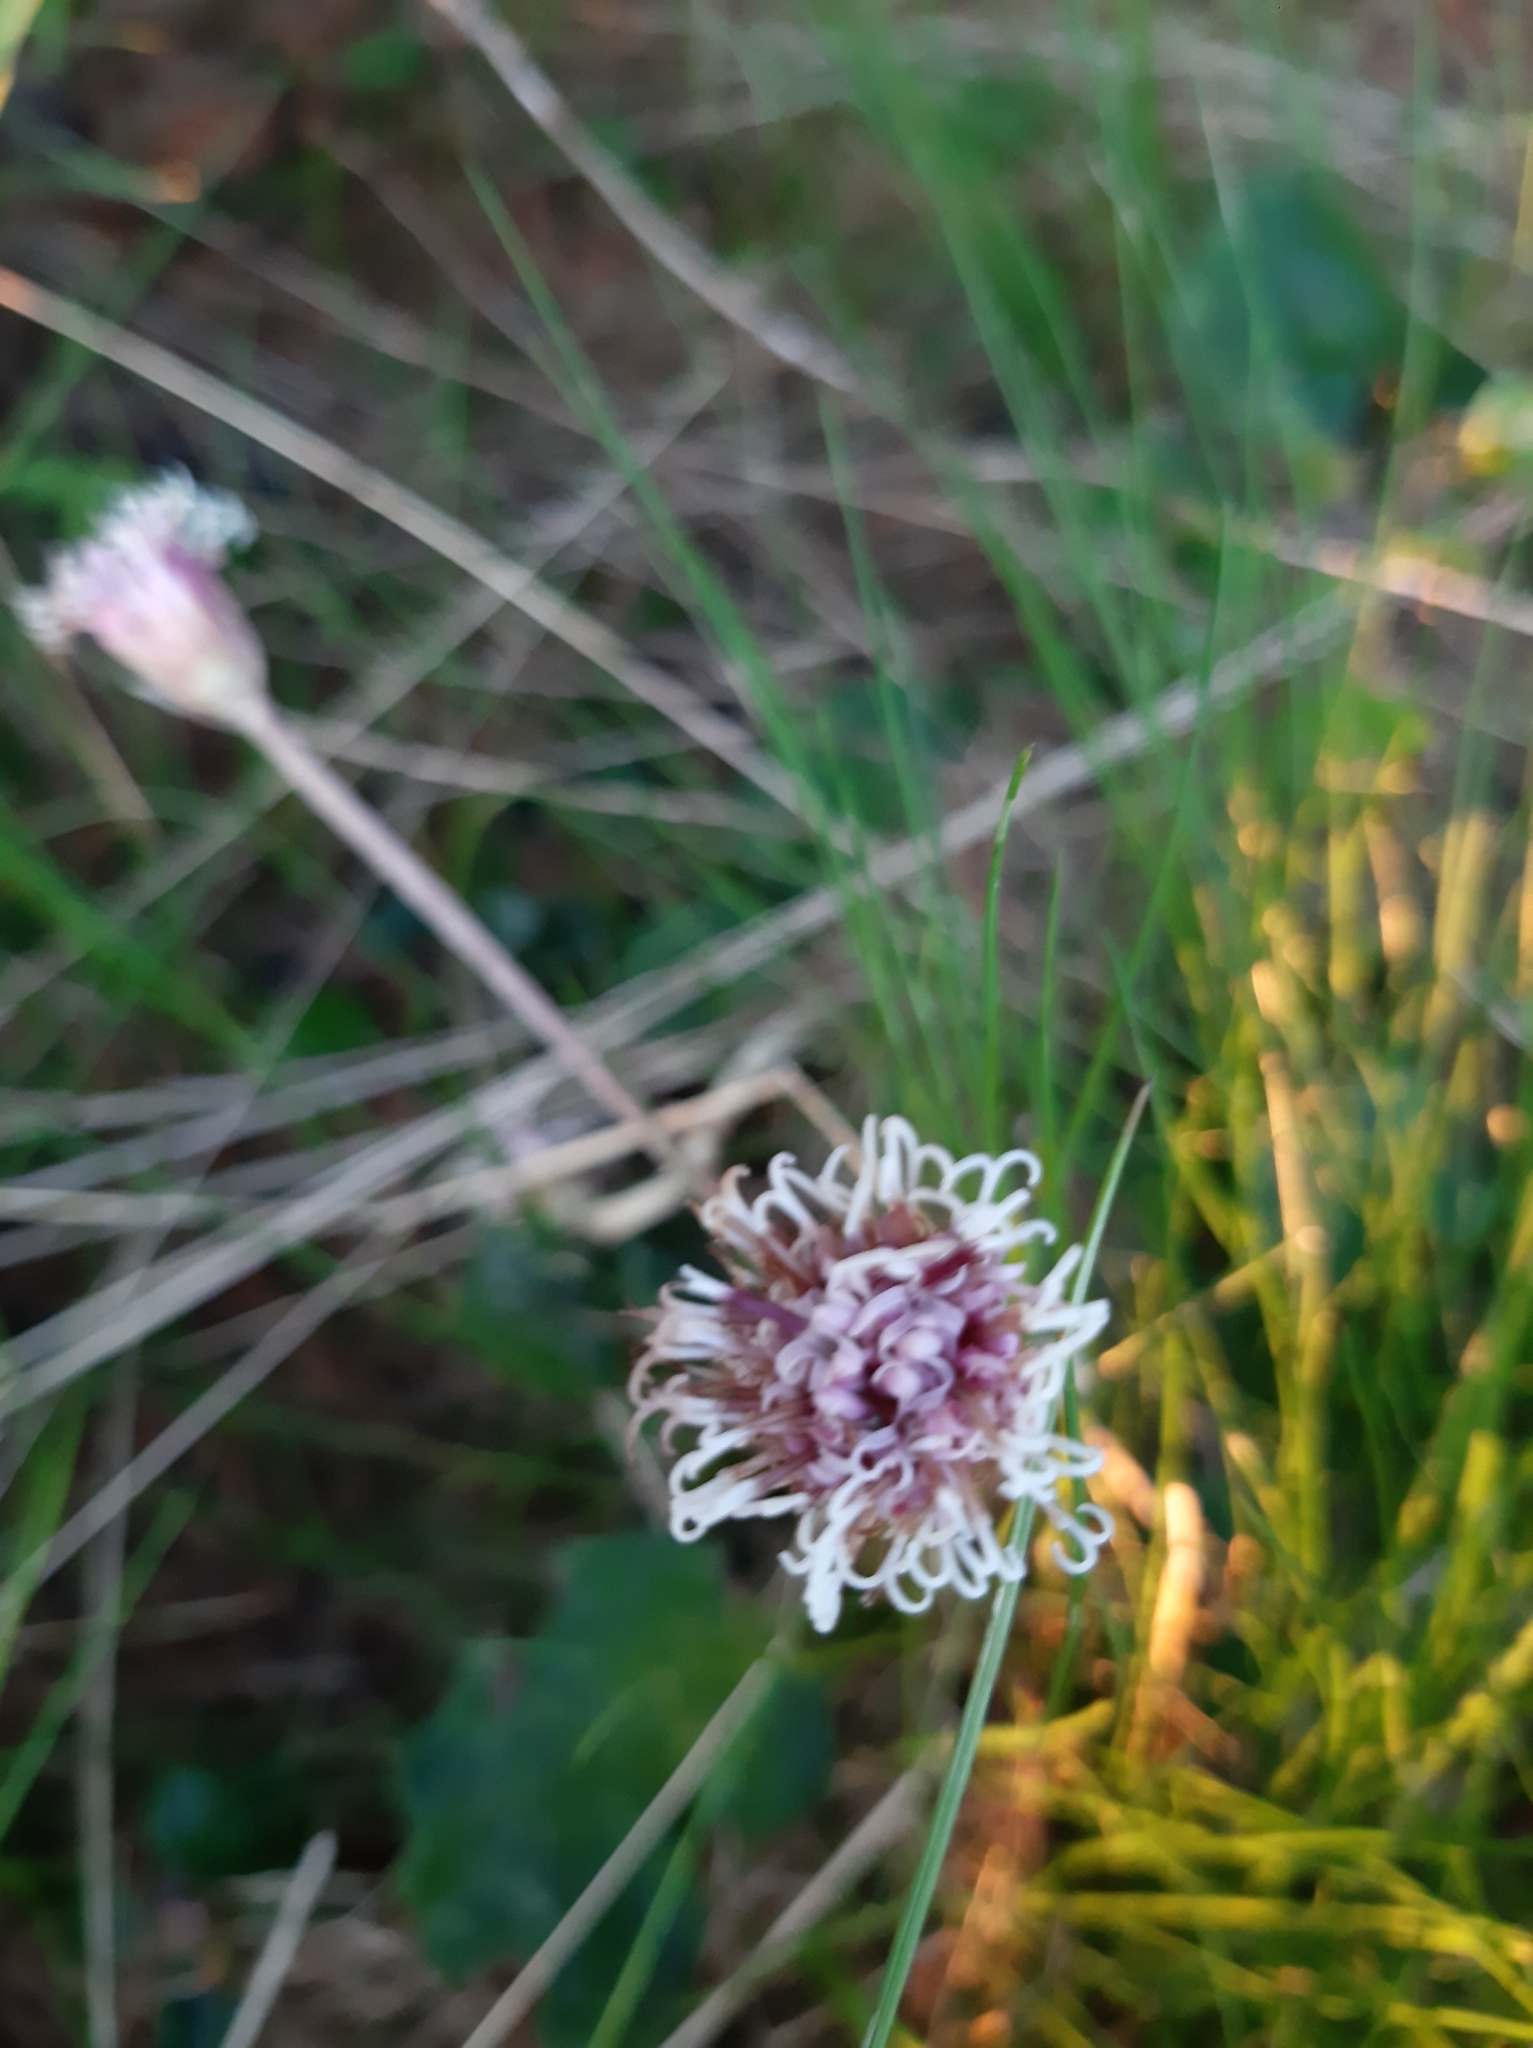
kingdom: Plantae
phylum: Tracheophyta
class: Magnoliopsida
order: Asterales
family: Asteraceae
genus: Homogyne
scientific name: Homogyne alpina
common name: Purple colt's-foot
